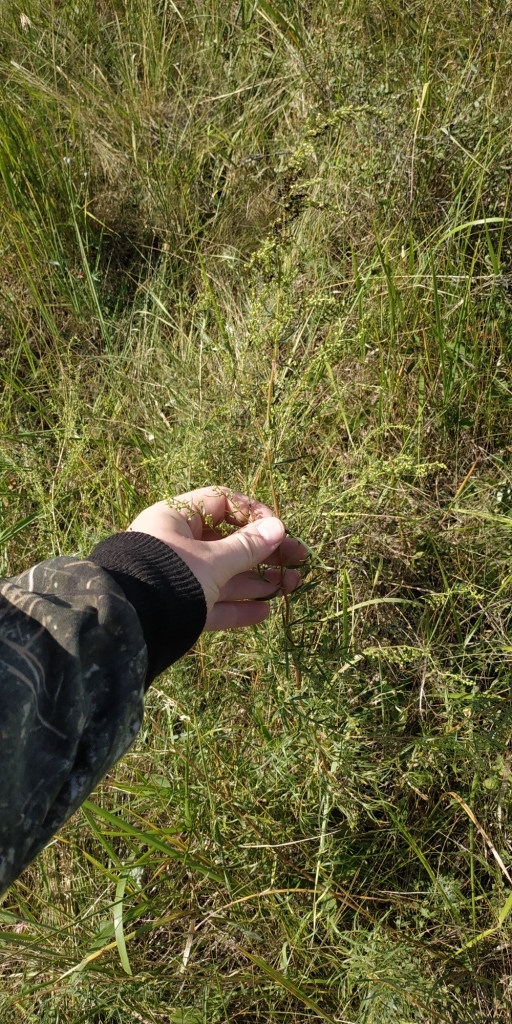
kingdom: Plantae
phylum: Tracheophyta
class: Magnoliopsida
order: Asterales
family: Asteraceae
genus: Artemisia
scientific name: Artemisia dracunculus
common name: Tarragon
